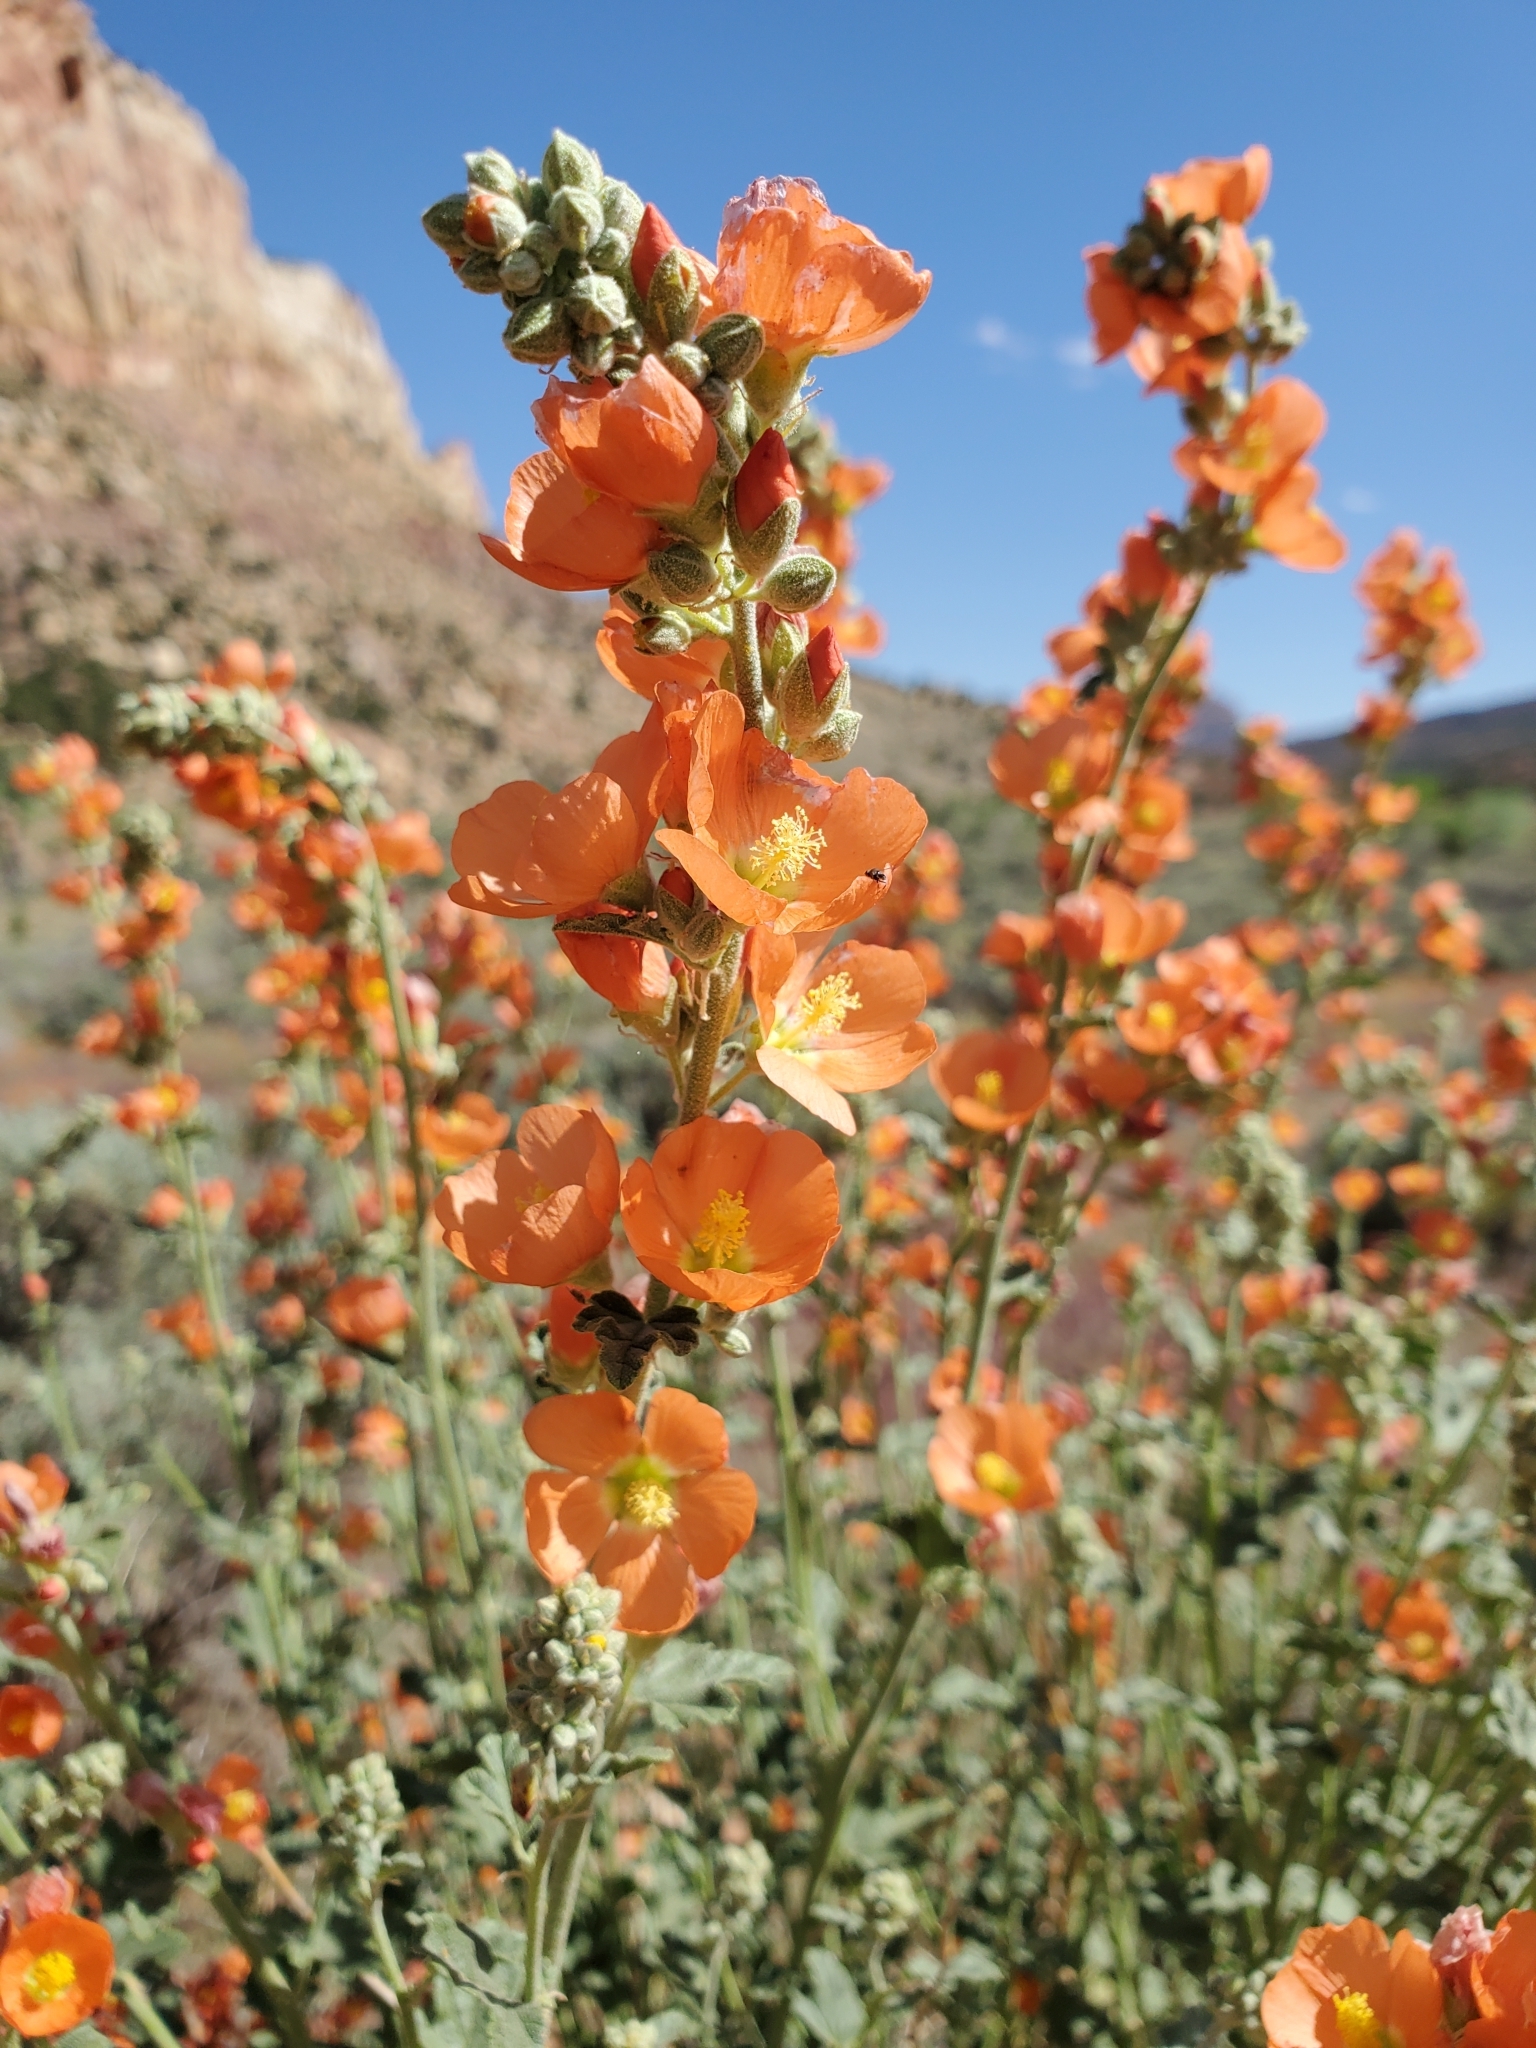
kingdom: Plantae
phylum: Tracheophyta
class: Magnoliopsida
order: Malvales
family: Malvaceae
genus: Sphaeralcea
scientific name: Sphaeralcea parvifolia
